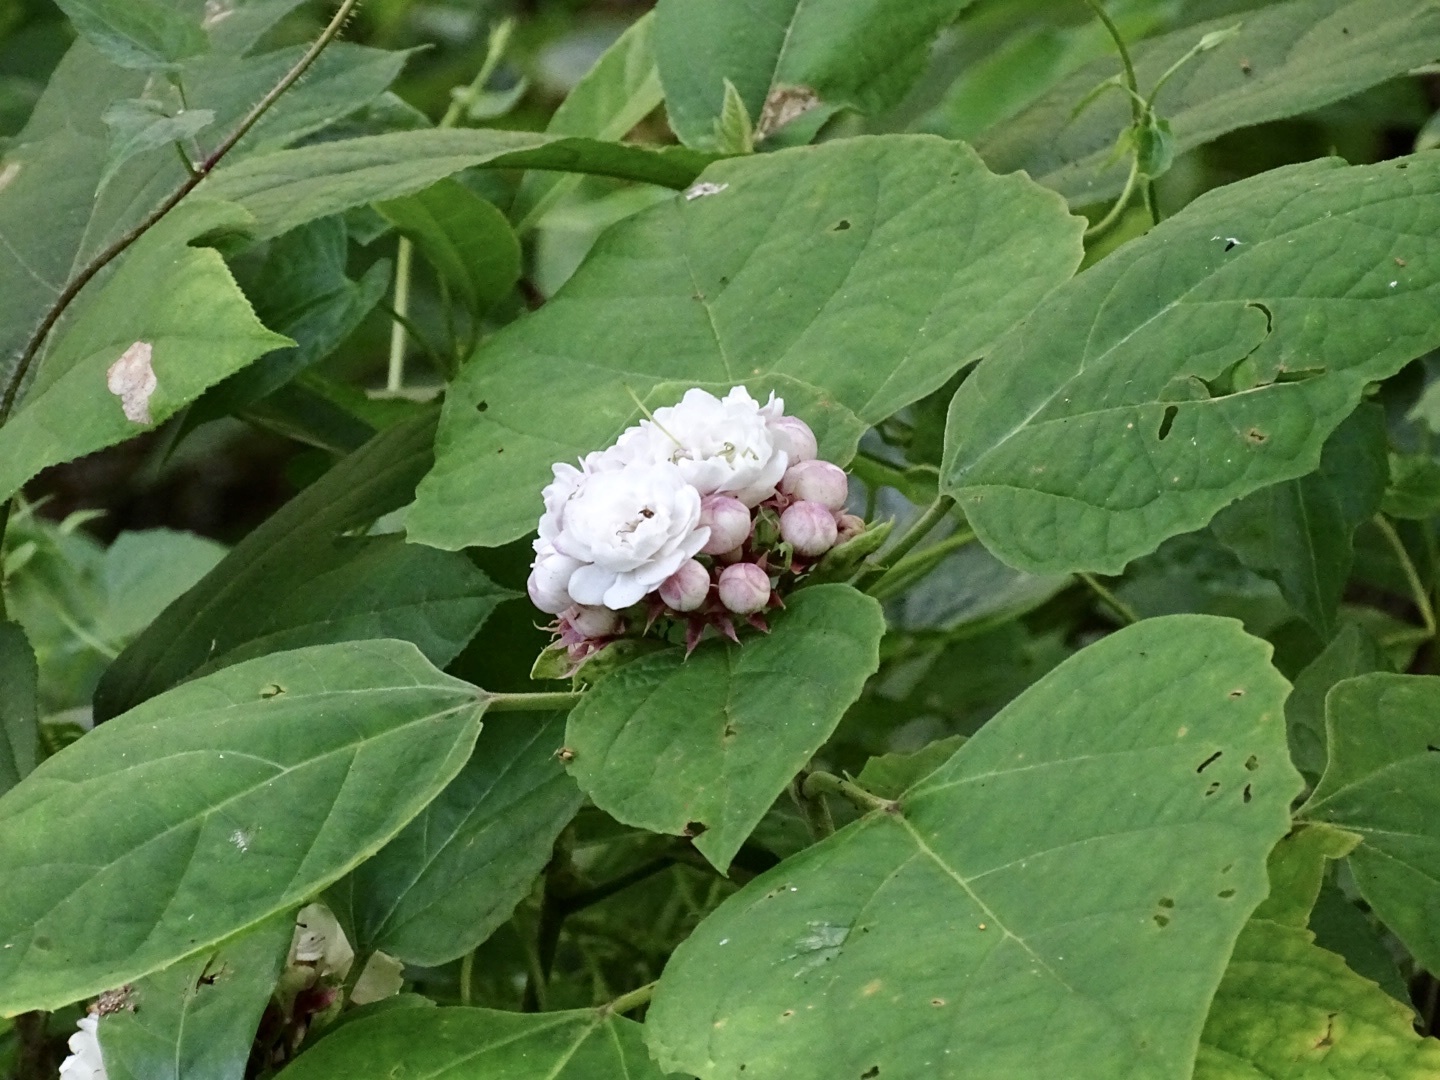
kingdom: Plantae
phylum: Tracheophyta
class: Magnoliopsida
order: Lamiales
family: Lamiaceae
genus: Clerodendrum
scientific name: Clerodendrum chinense
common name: Stickbush
